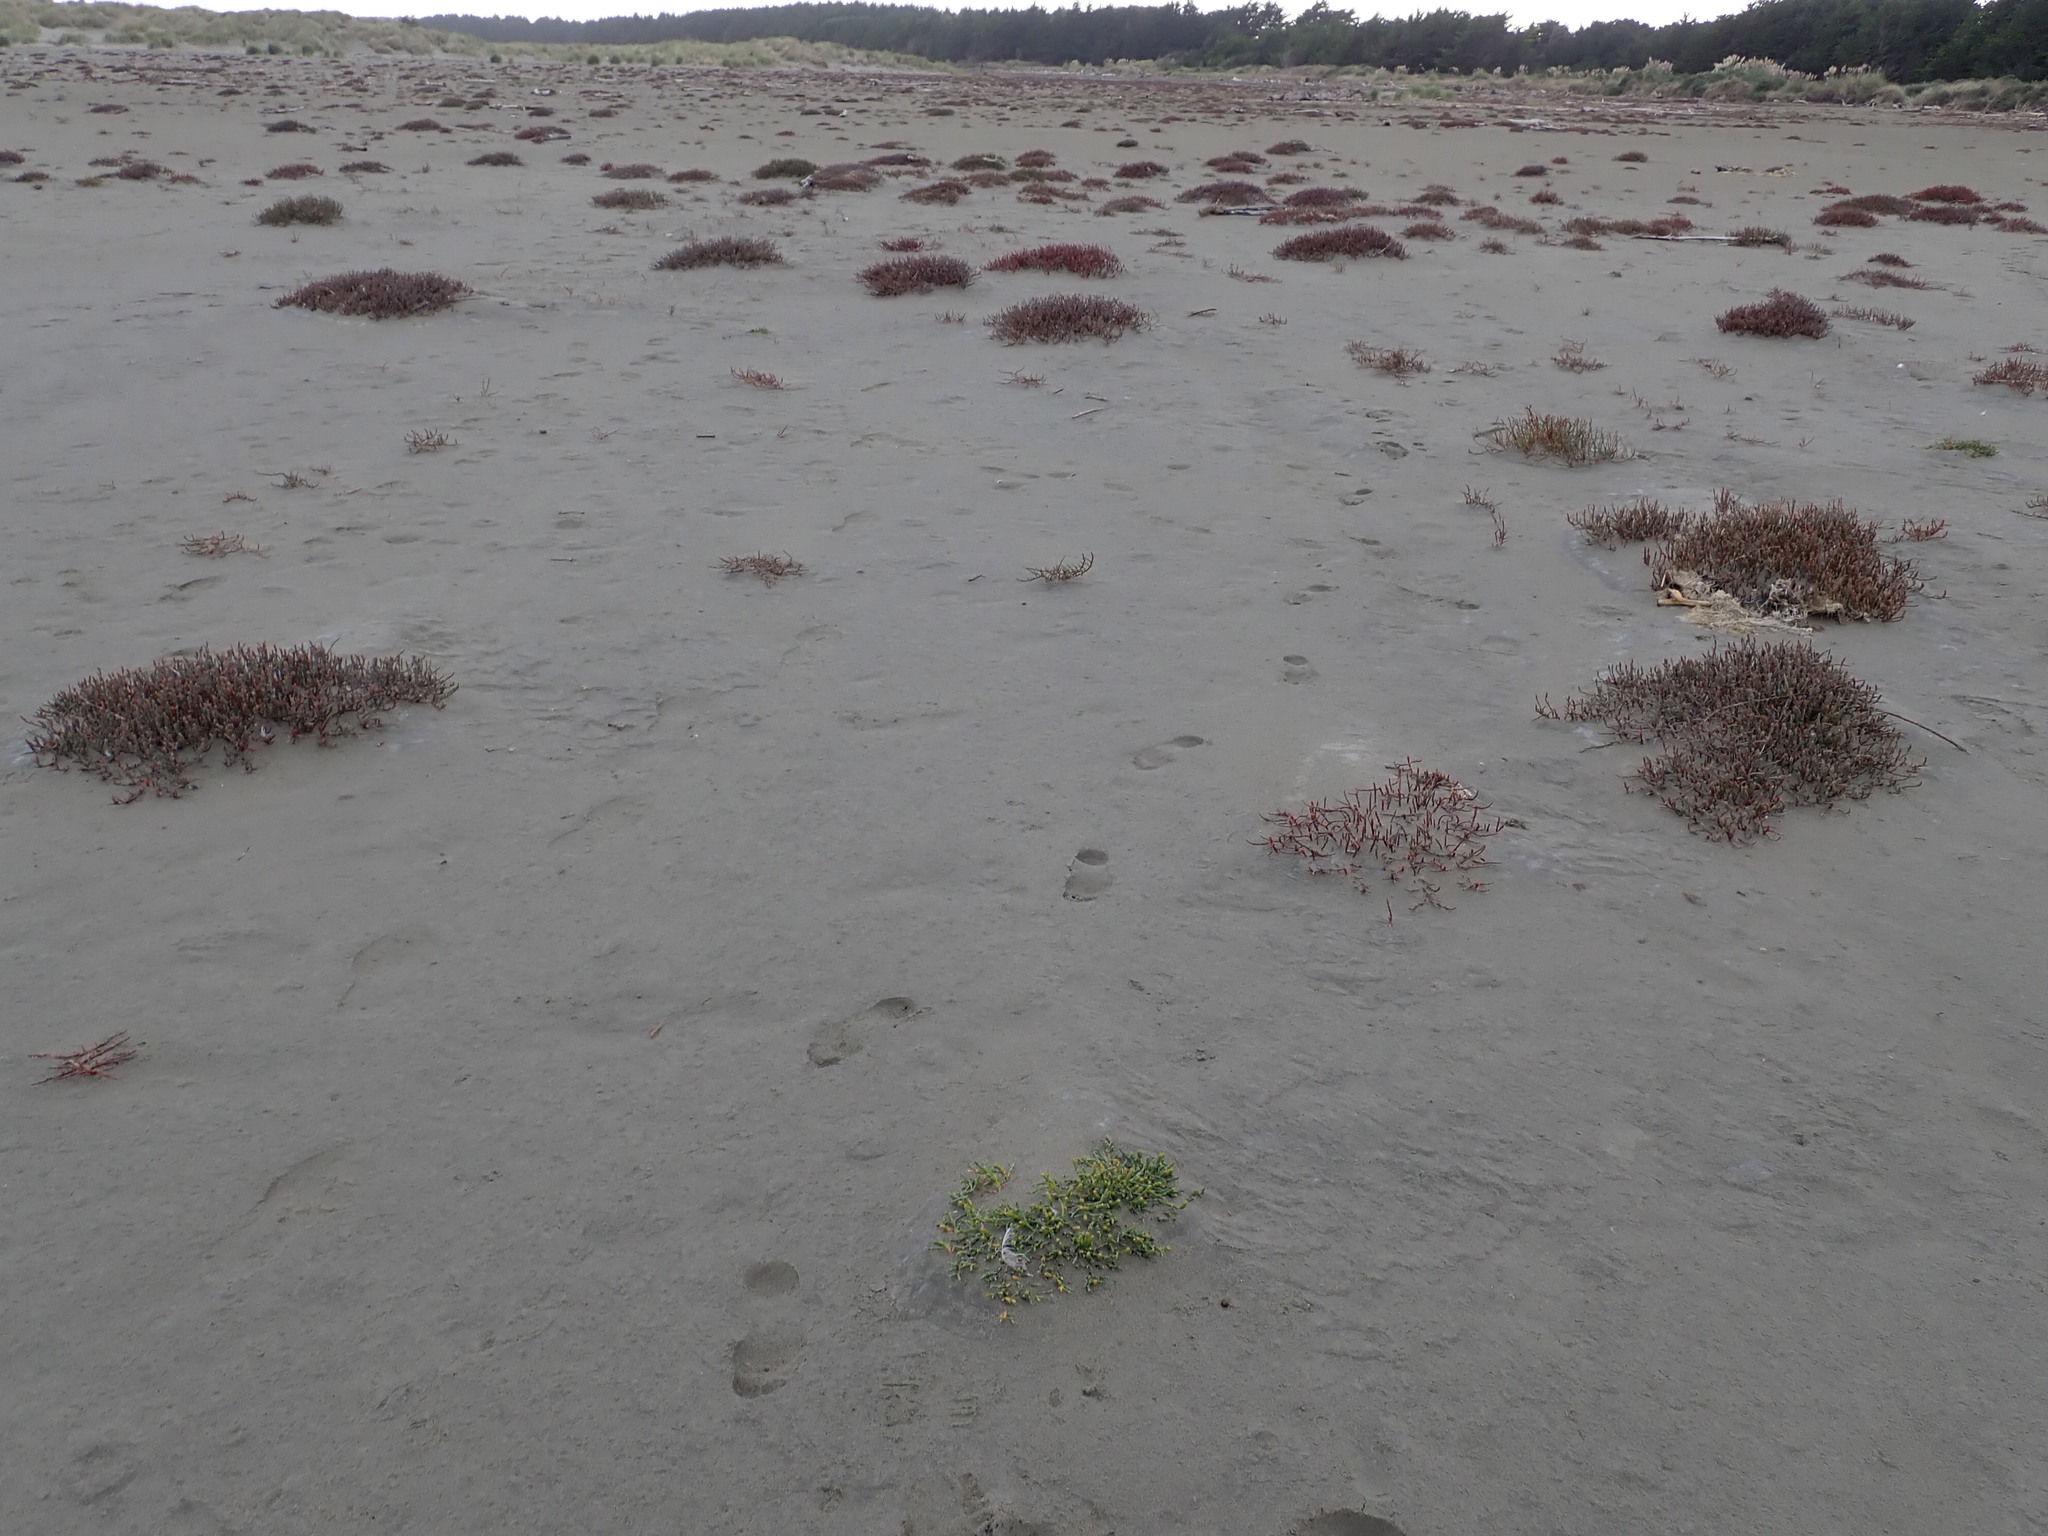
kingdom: Plantae
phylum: Tracheophyta
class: Magnoliopsida
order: Caryophyllales
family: Amaranthaceae
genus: Salicornia
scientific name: Salicornia quinqueflora
